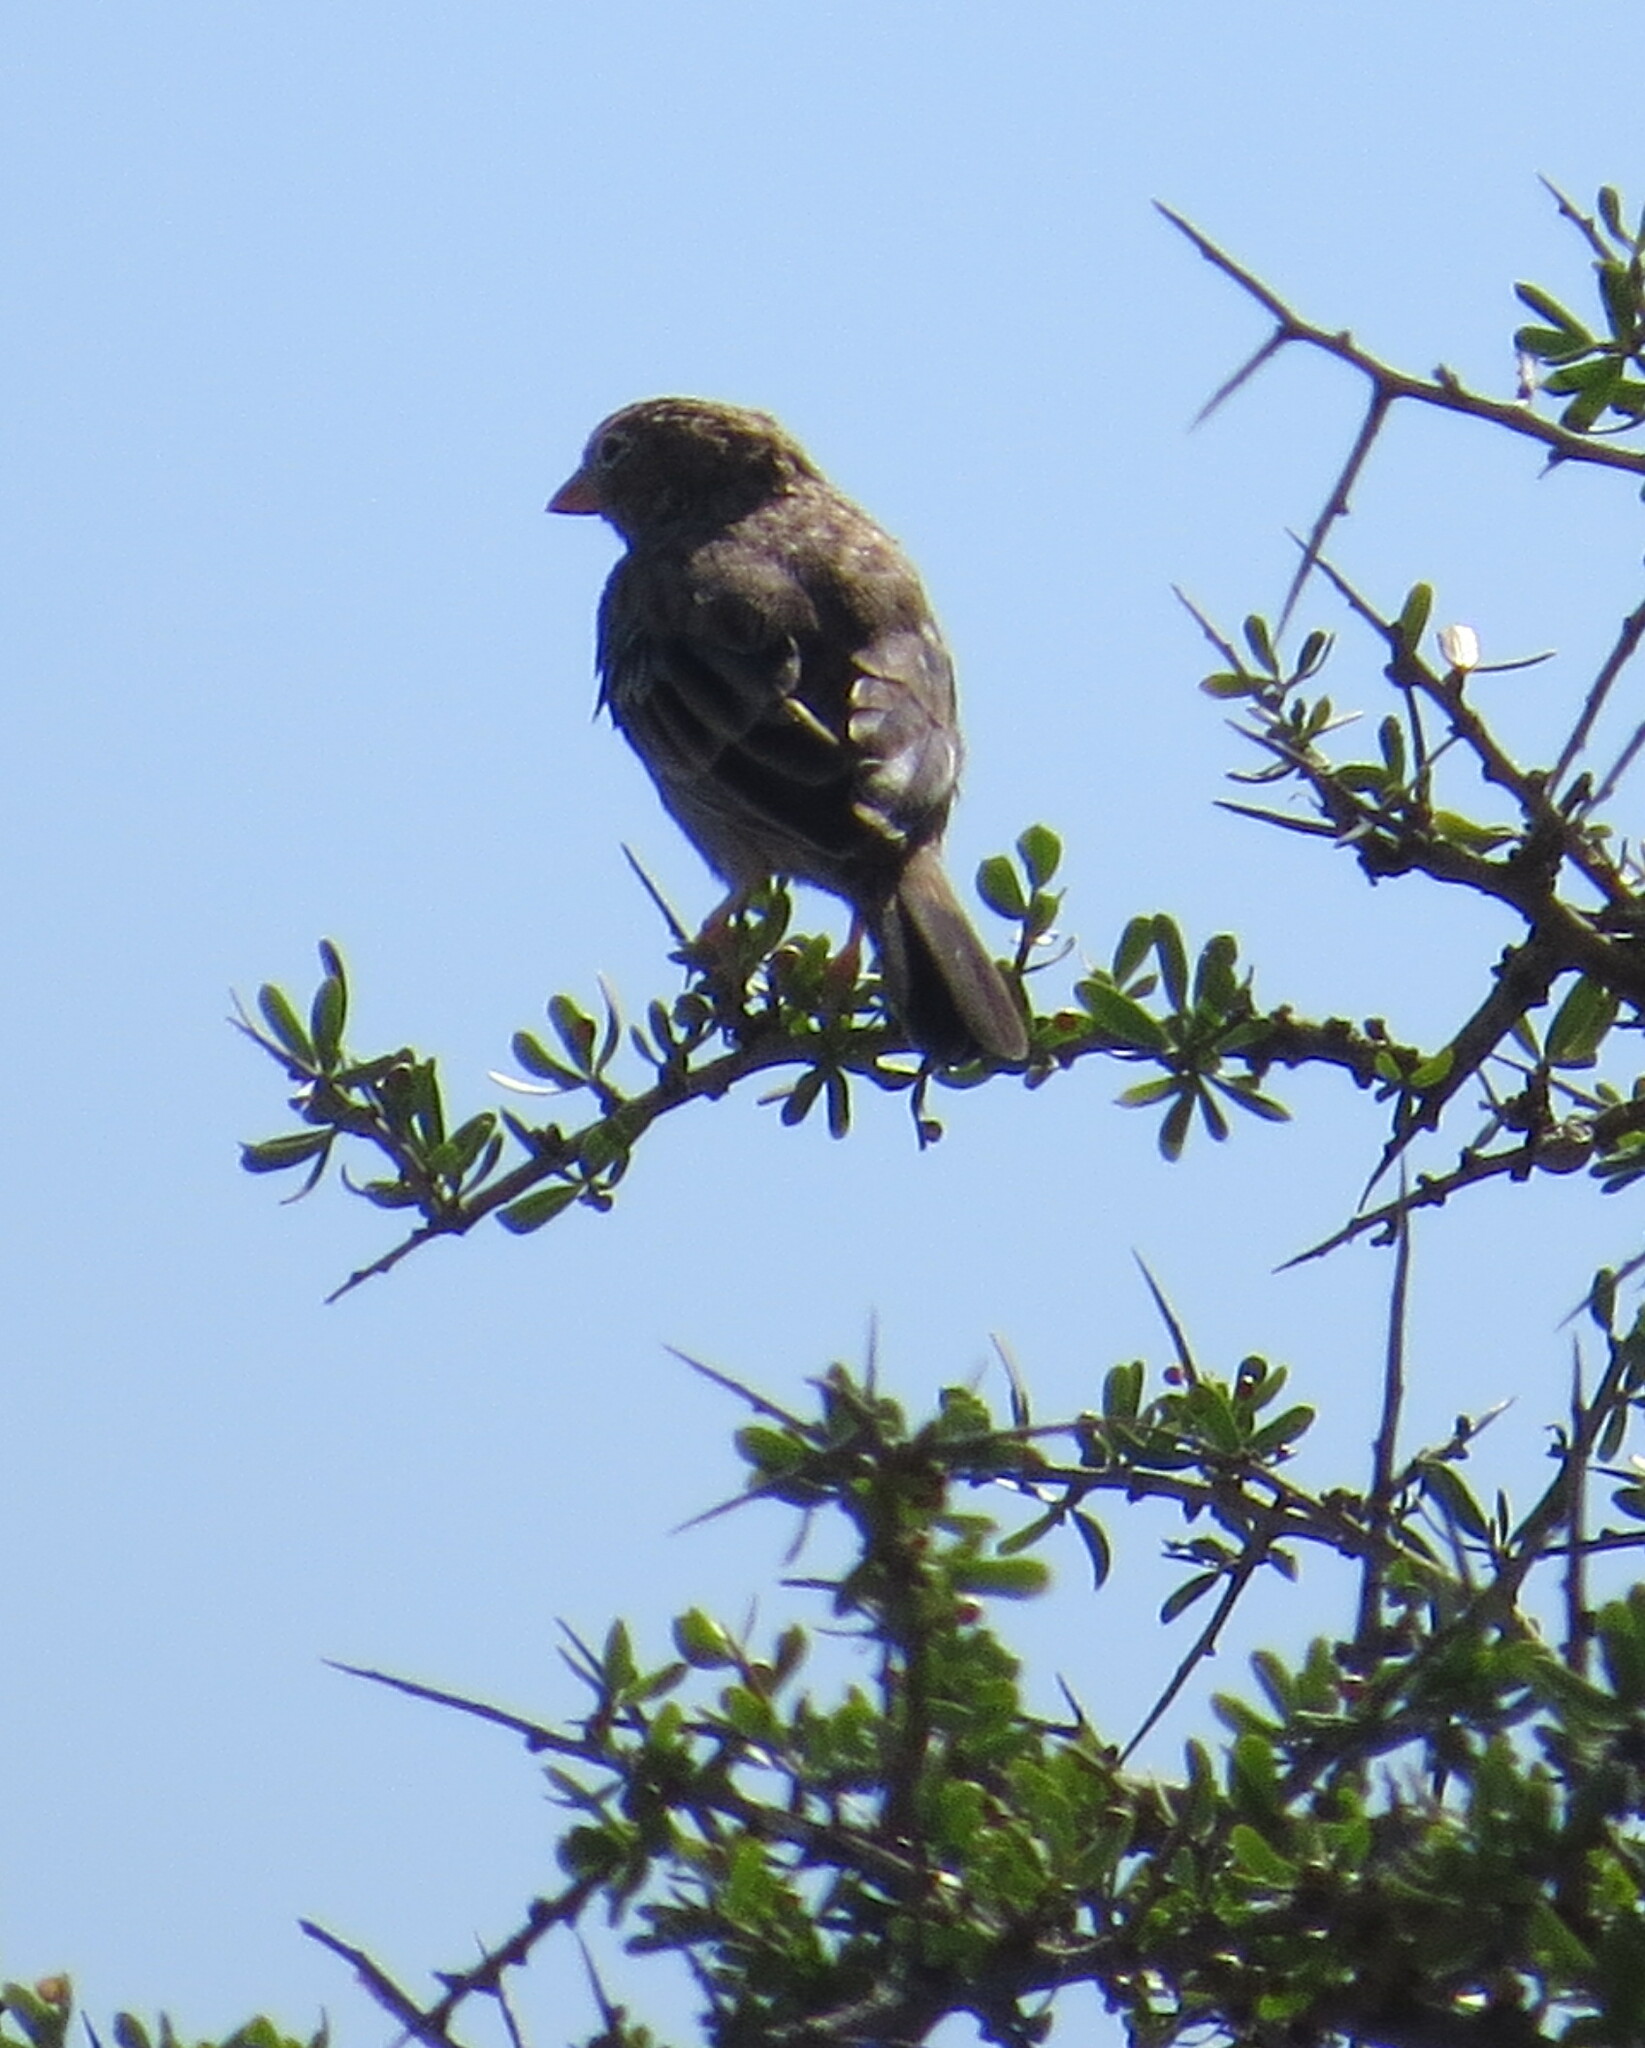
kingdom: Animalia
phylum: Chordata
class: Aves
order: Passeriformes
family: Thraupidae
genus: Porphyrospiza
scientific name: Porphyrospiza carbonaria
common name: Carbon finch
